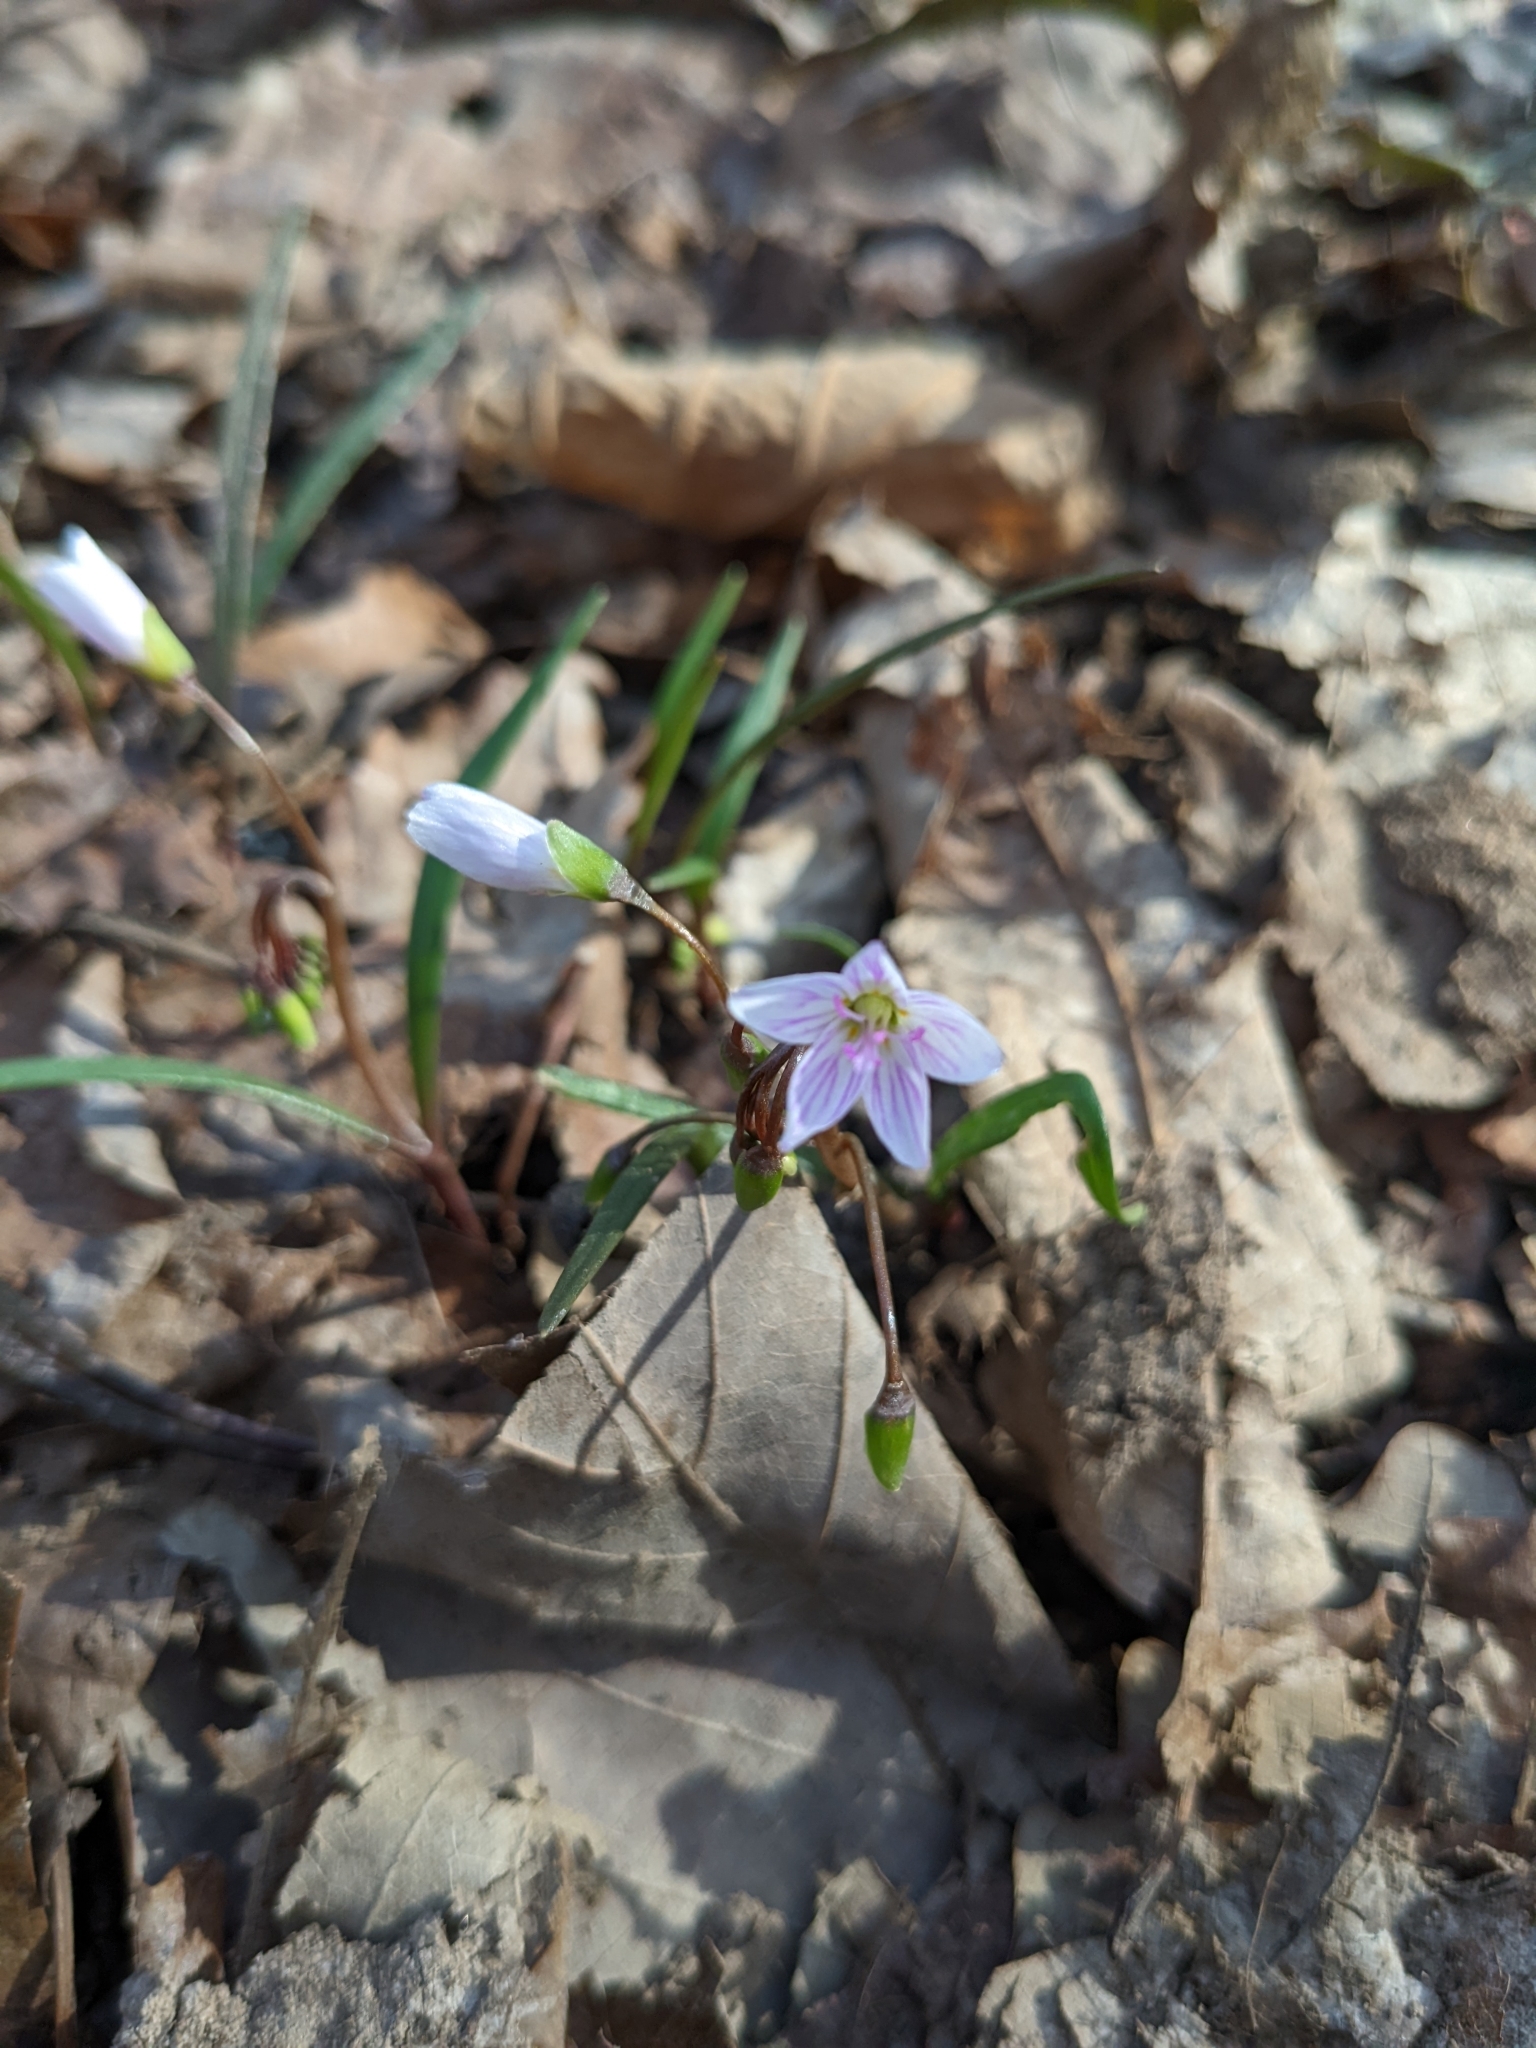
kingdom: Plantae
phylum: Tracheophyta
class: Magnoliopsida
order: Caryophyllales
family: Montiaceae
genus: Claytonia
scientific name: Claytonia virginica
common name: Virginia springbeauty
